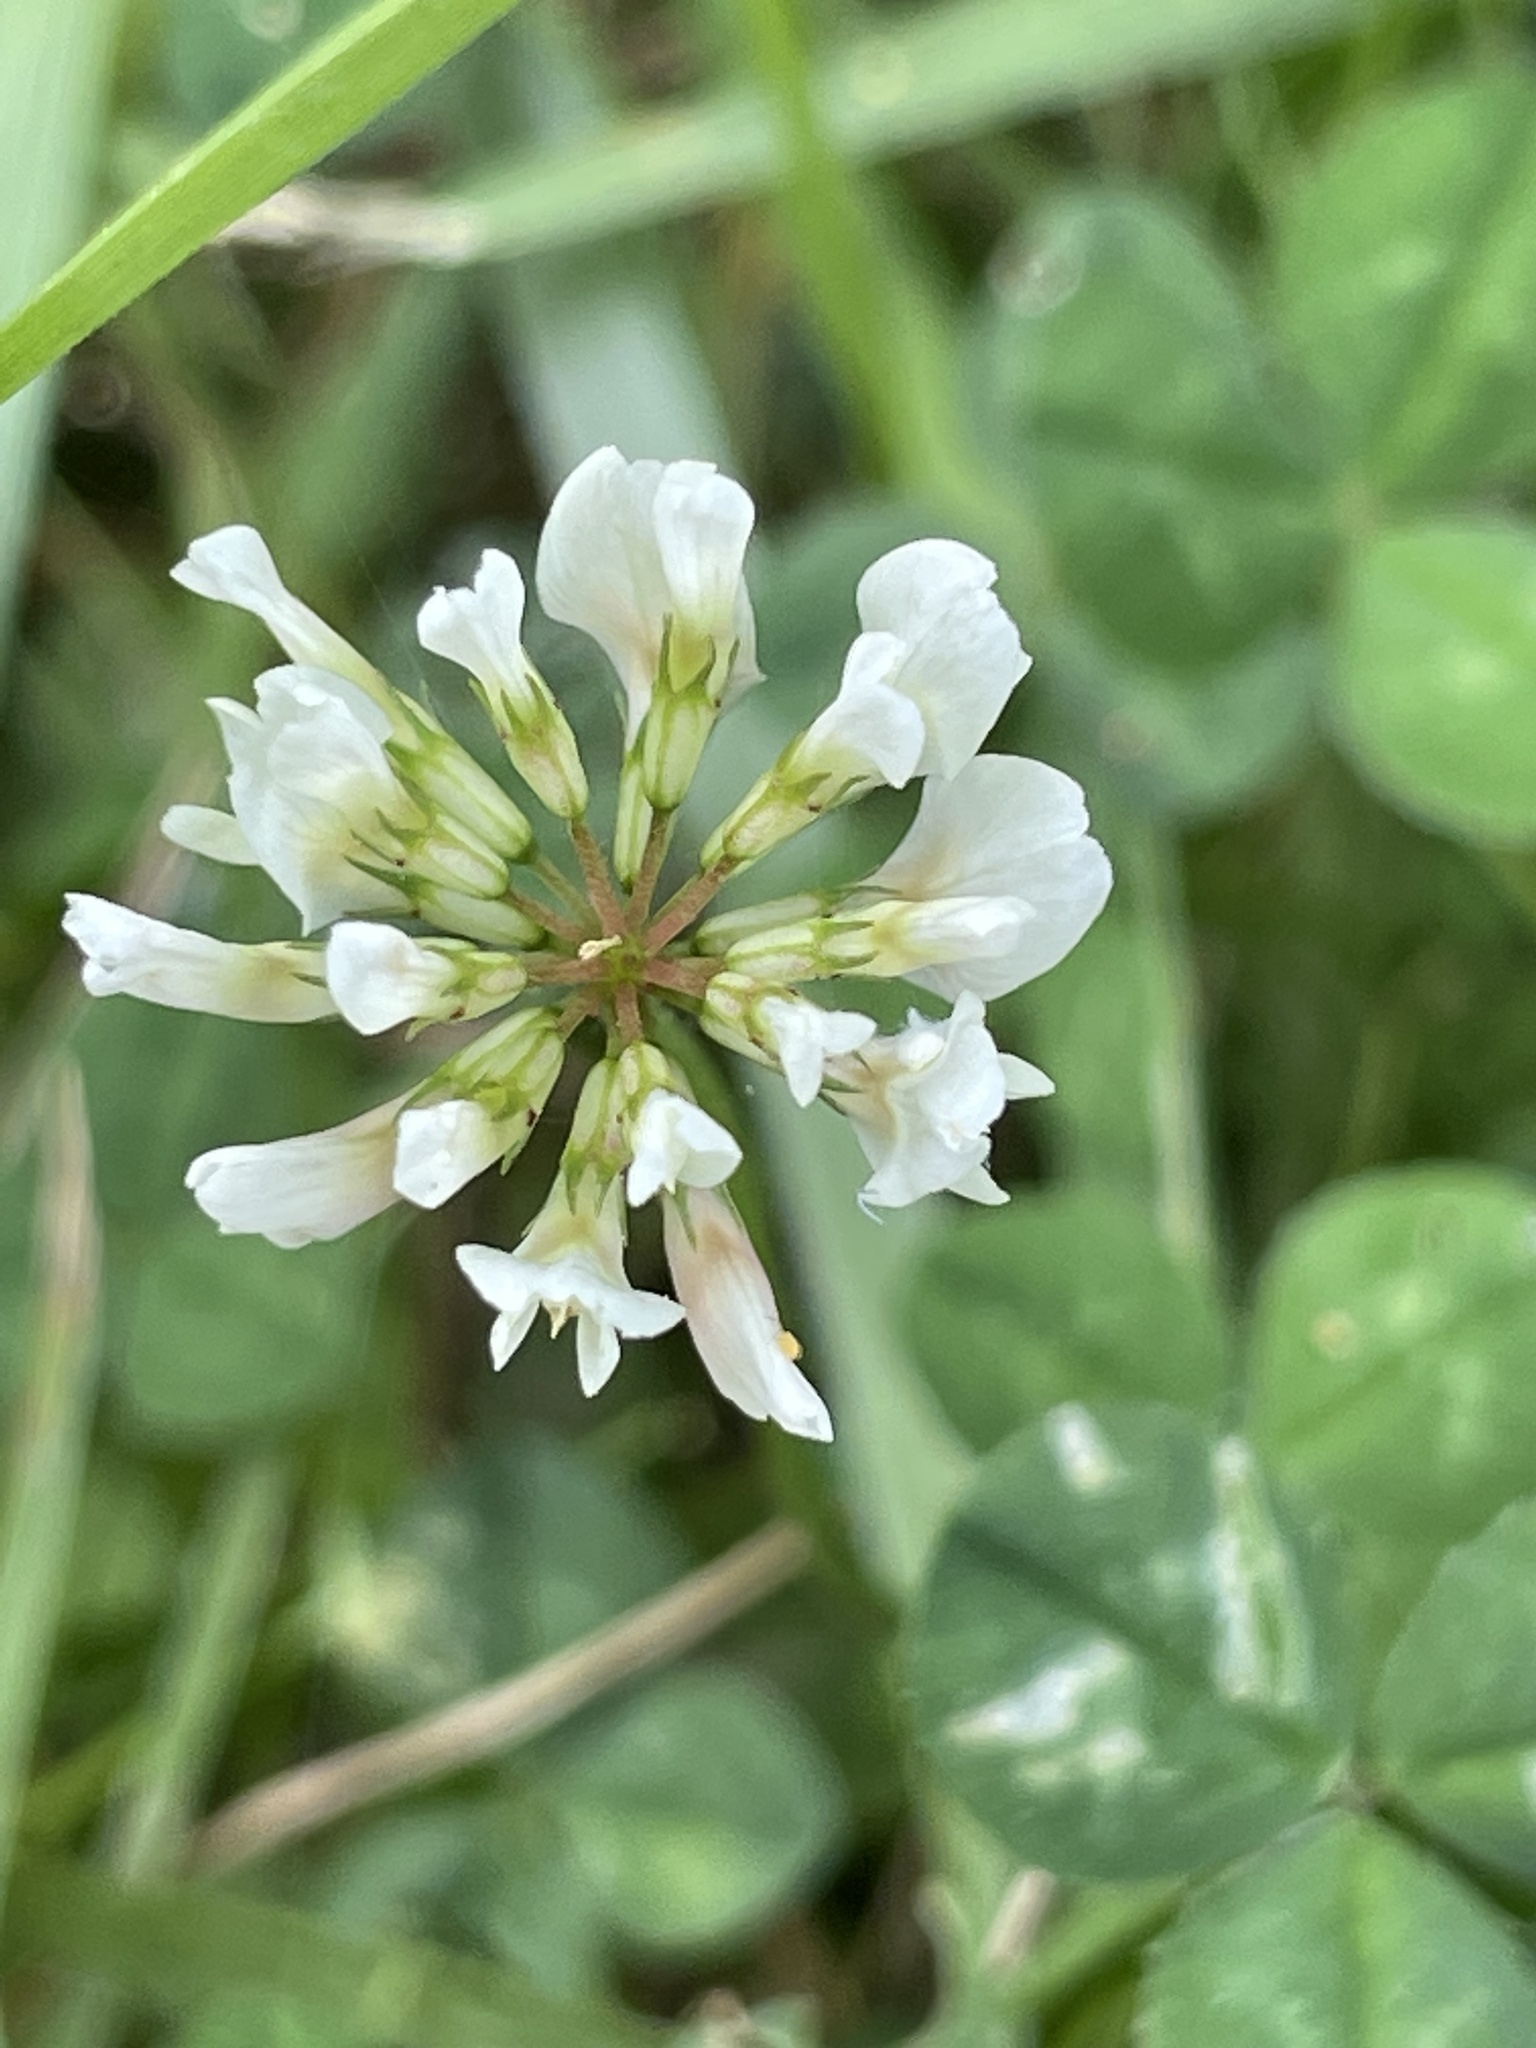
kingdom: Plantae
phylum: Tracheophyta
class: Magnoliopsida
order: Fabales
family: Fabaceae
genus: Trifolium
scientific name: Trifolium repens
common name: White clover
